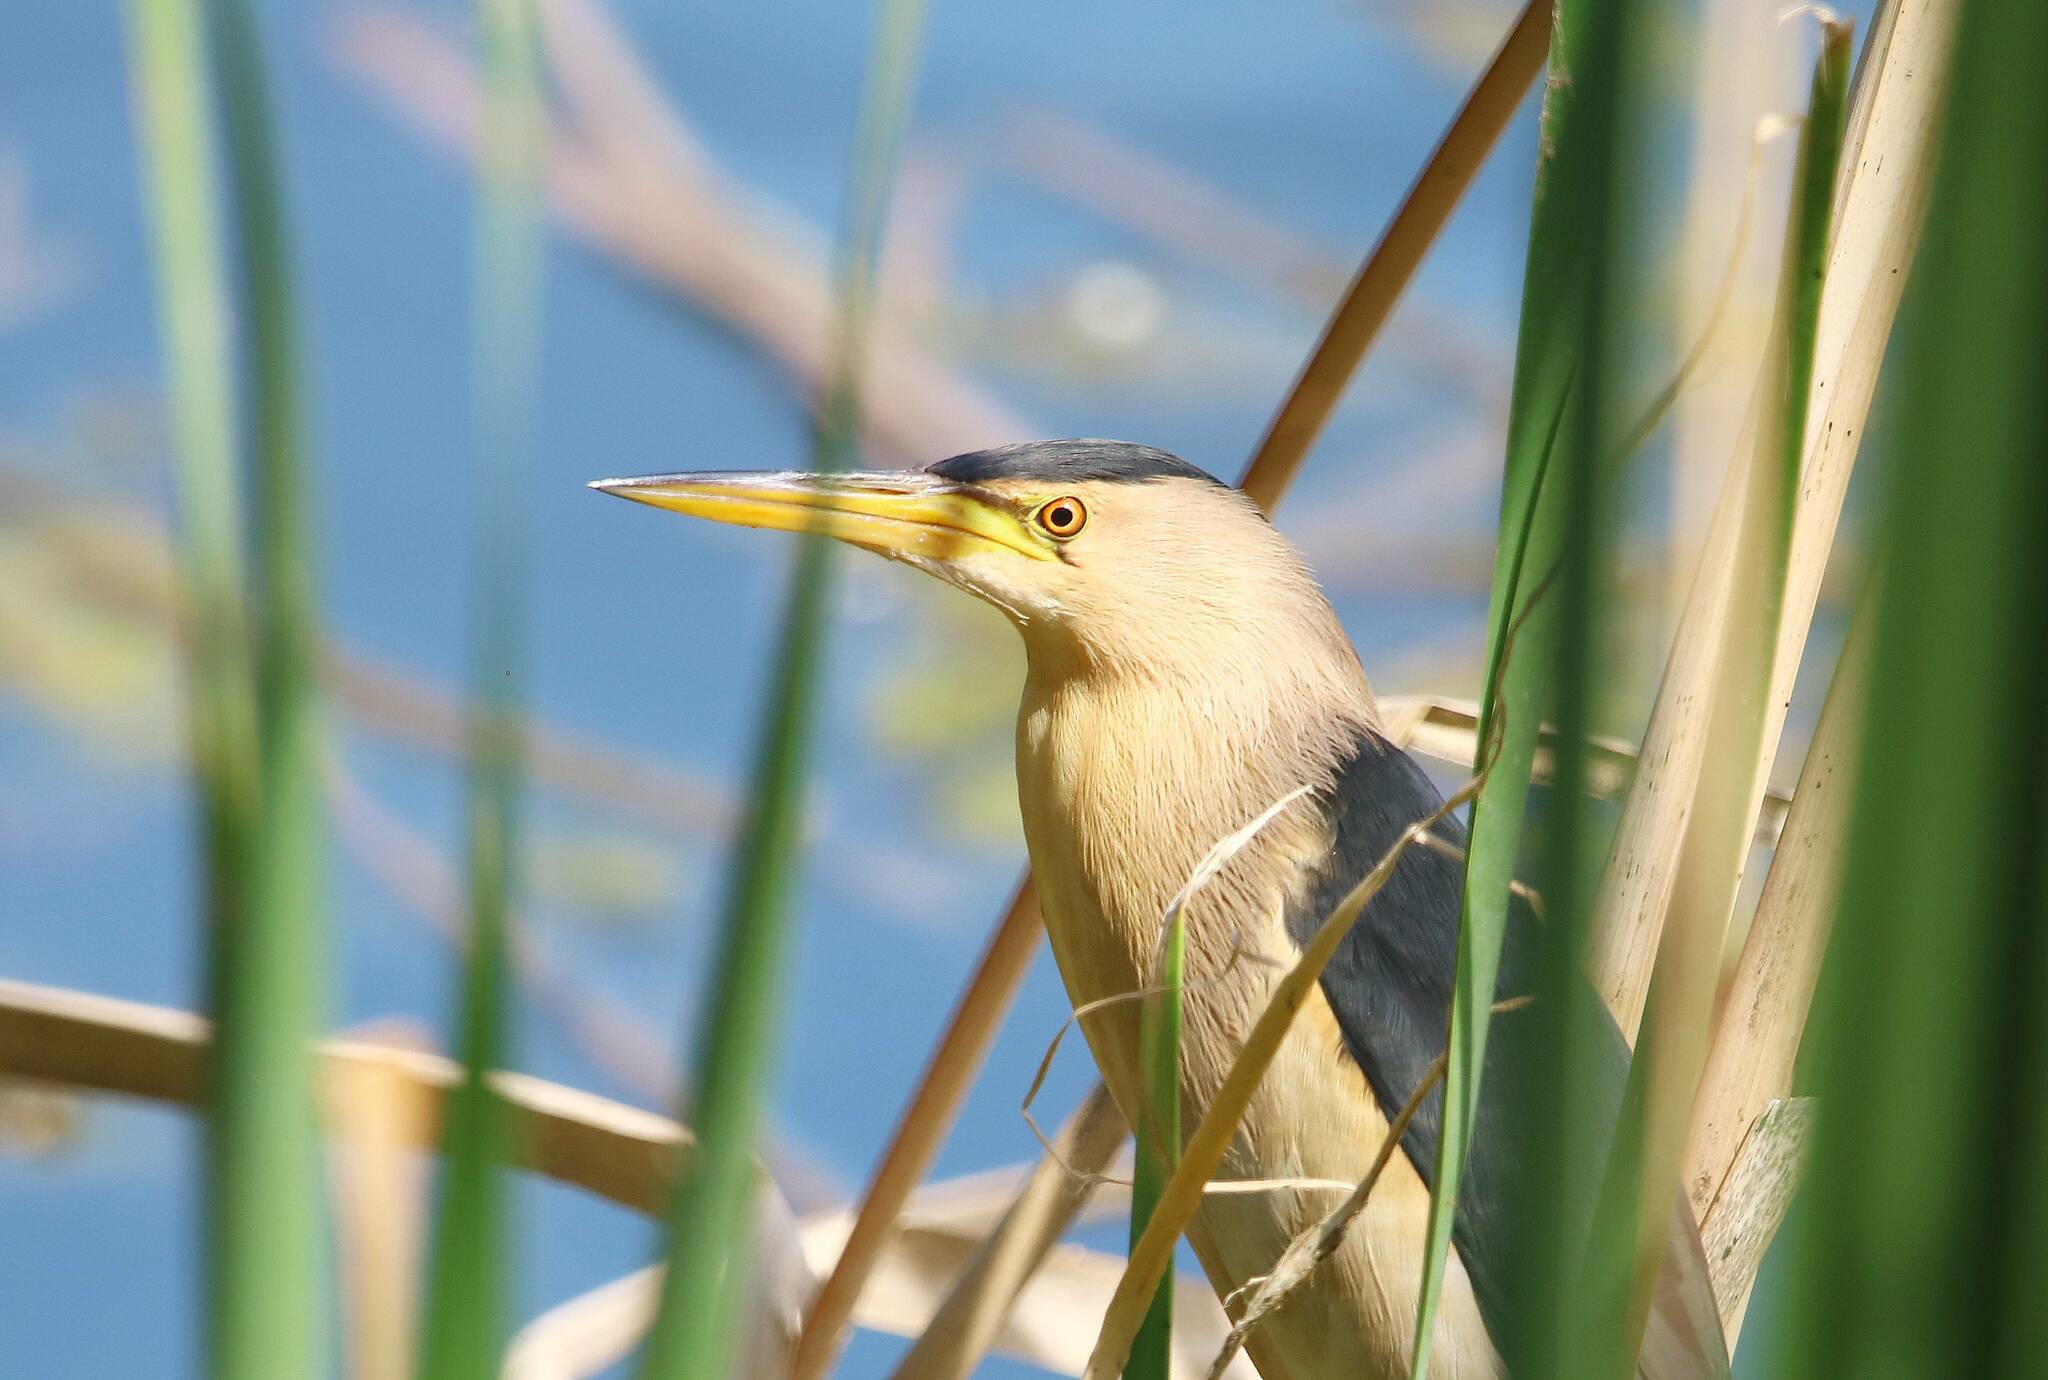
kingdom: Animalia
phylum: Chordata
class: Aves
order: Pelecaniformes
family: Ardeidae
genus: Ixobrychus
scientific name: Ixobrychus minutus
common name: Little bittern
